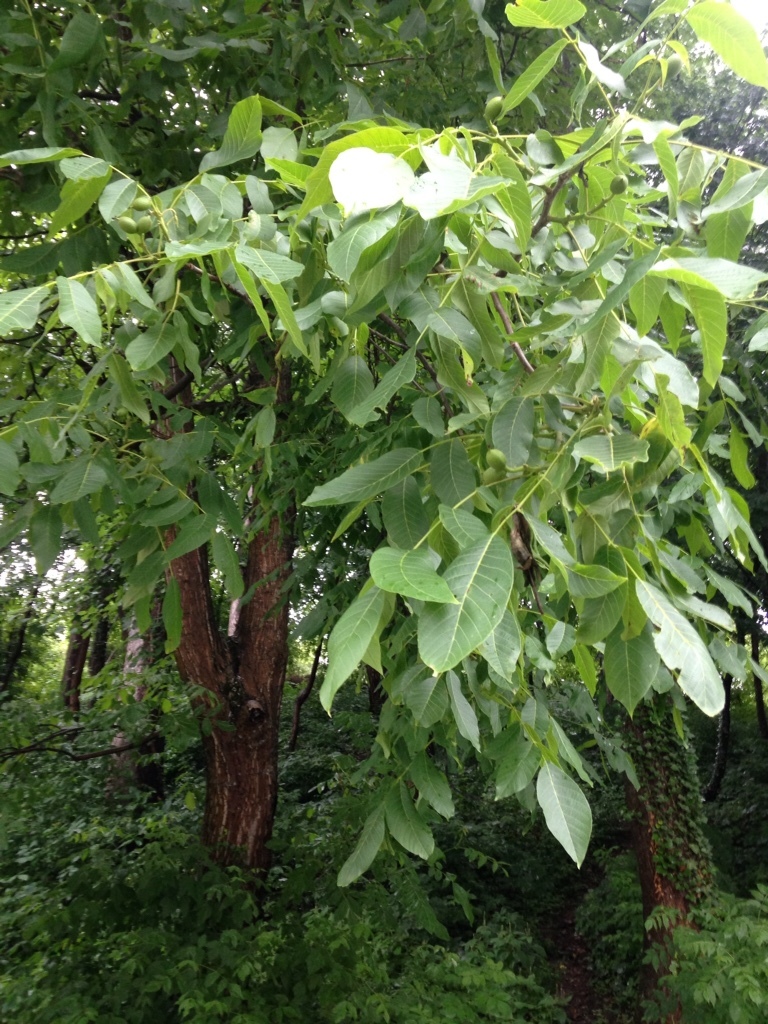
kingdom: Plantae
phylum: Tracheophyta
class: Magnoliopsida
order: Fagales
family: Juglandaceae
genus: Juglans
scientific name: Juglans regia
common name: Walnut
